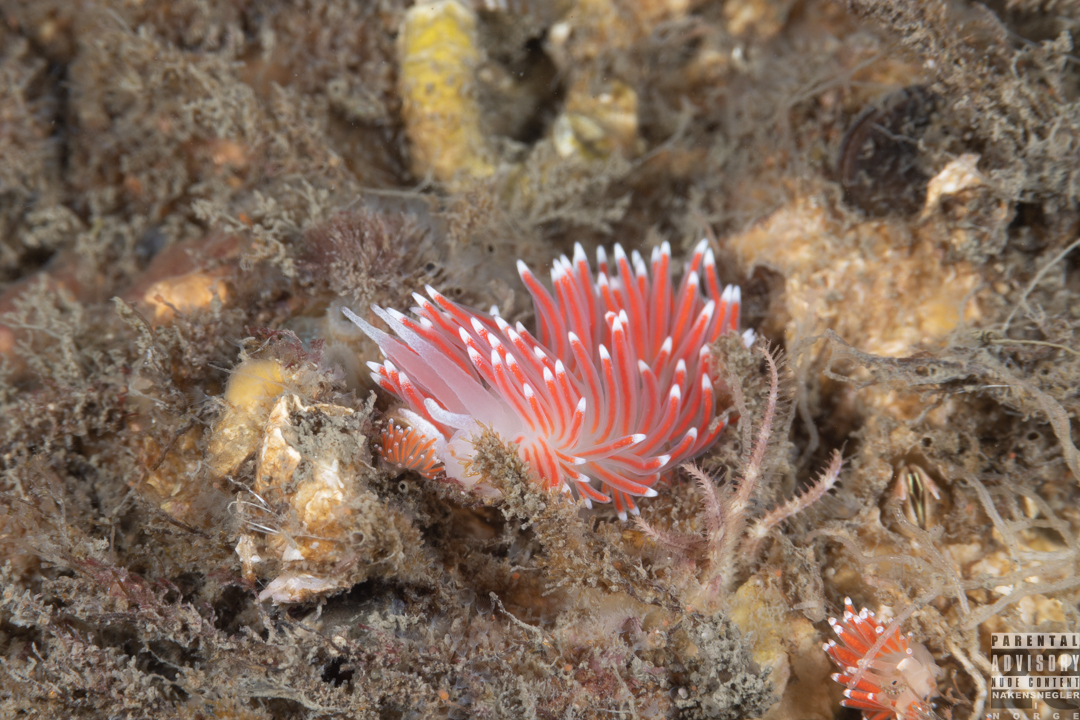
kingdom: Animalia
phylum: Mollusca
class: Gastropoda
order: Nudibranchia
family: Flabellinidae
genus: Carronella
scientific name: Carronella pellucida
